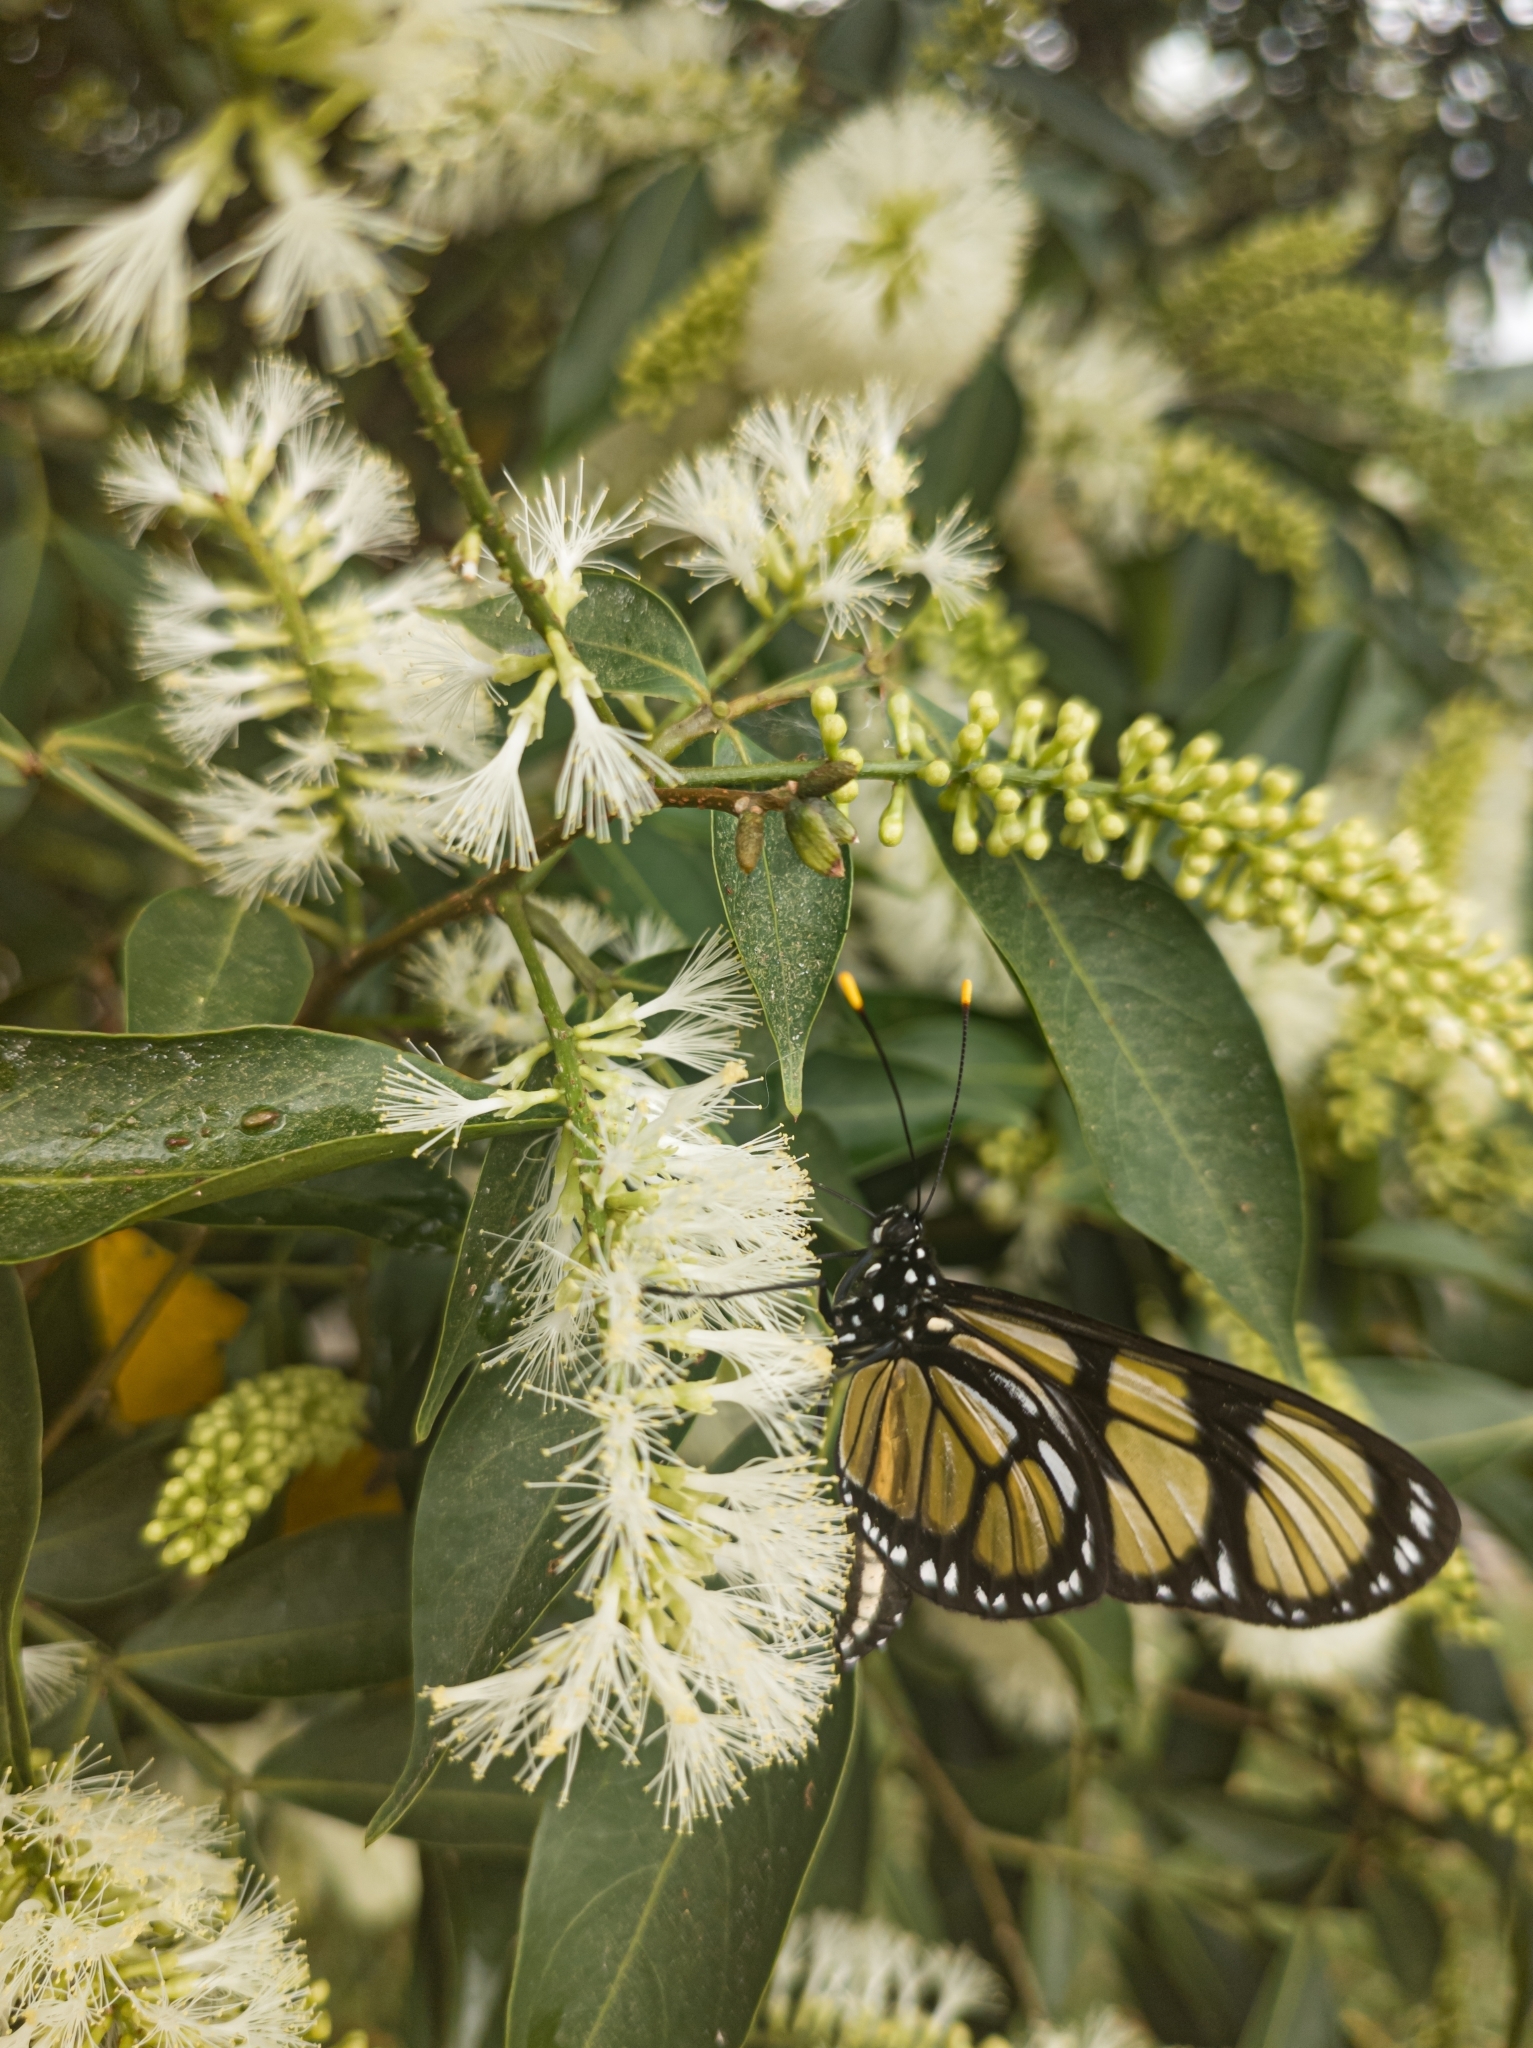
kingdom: Animalia
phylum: Arthropoda
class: Insecta
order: Lepidoptera
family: Nymphalidae
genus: Methona
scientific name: Methona themisto
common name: Themisto amberwing
